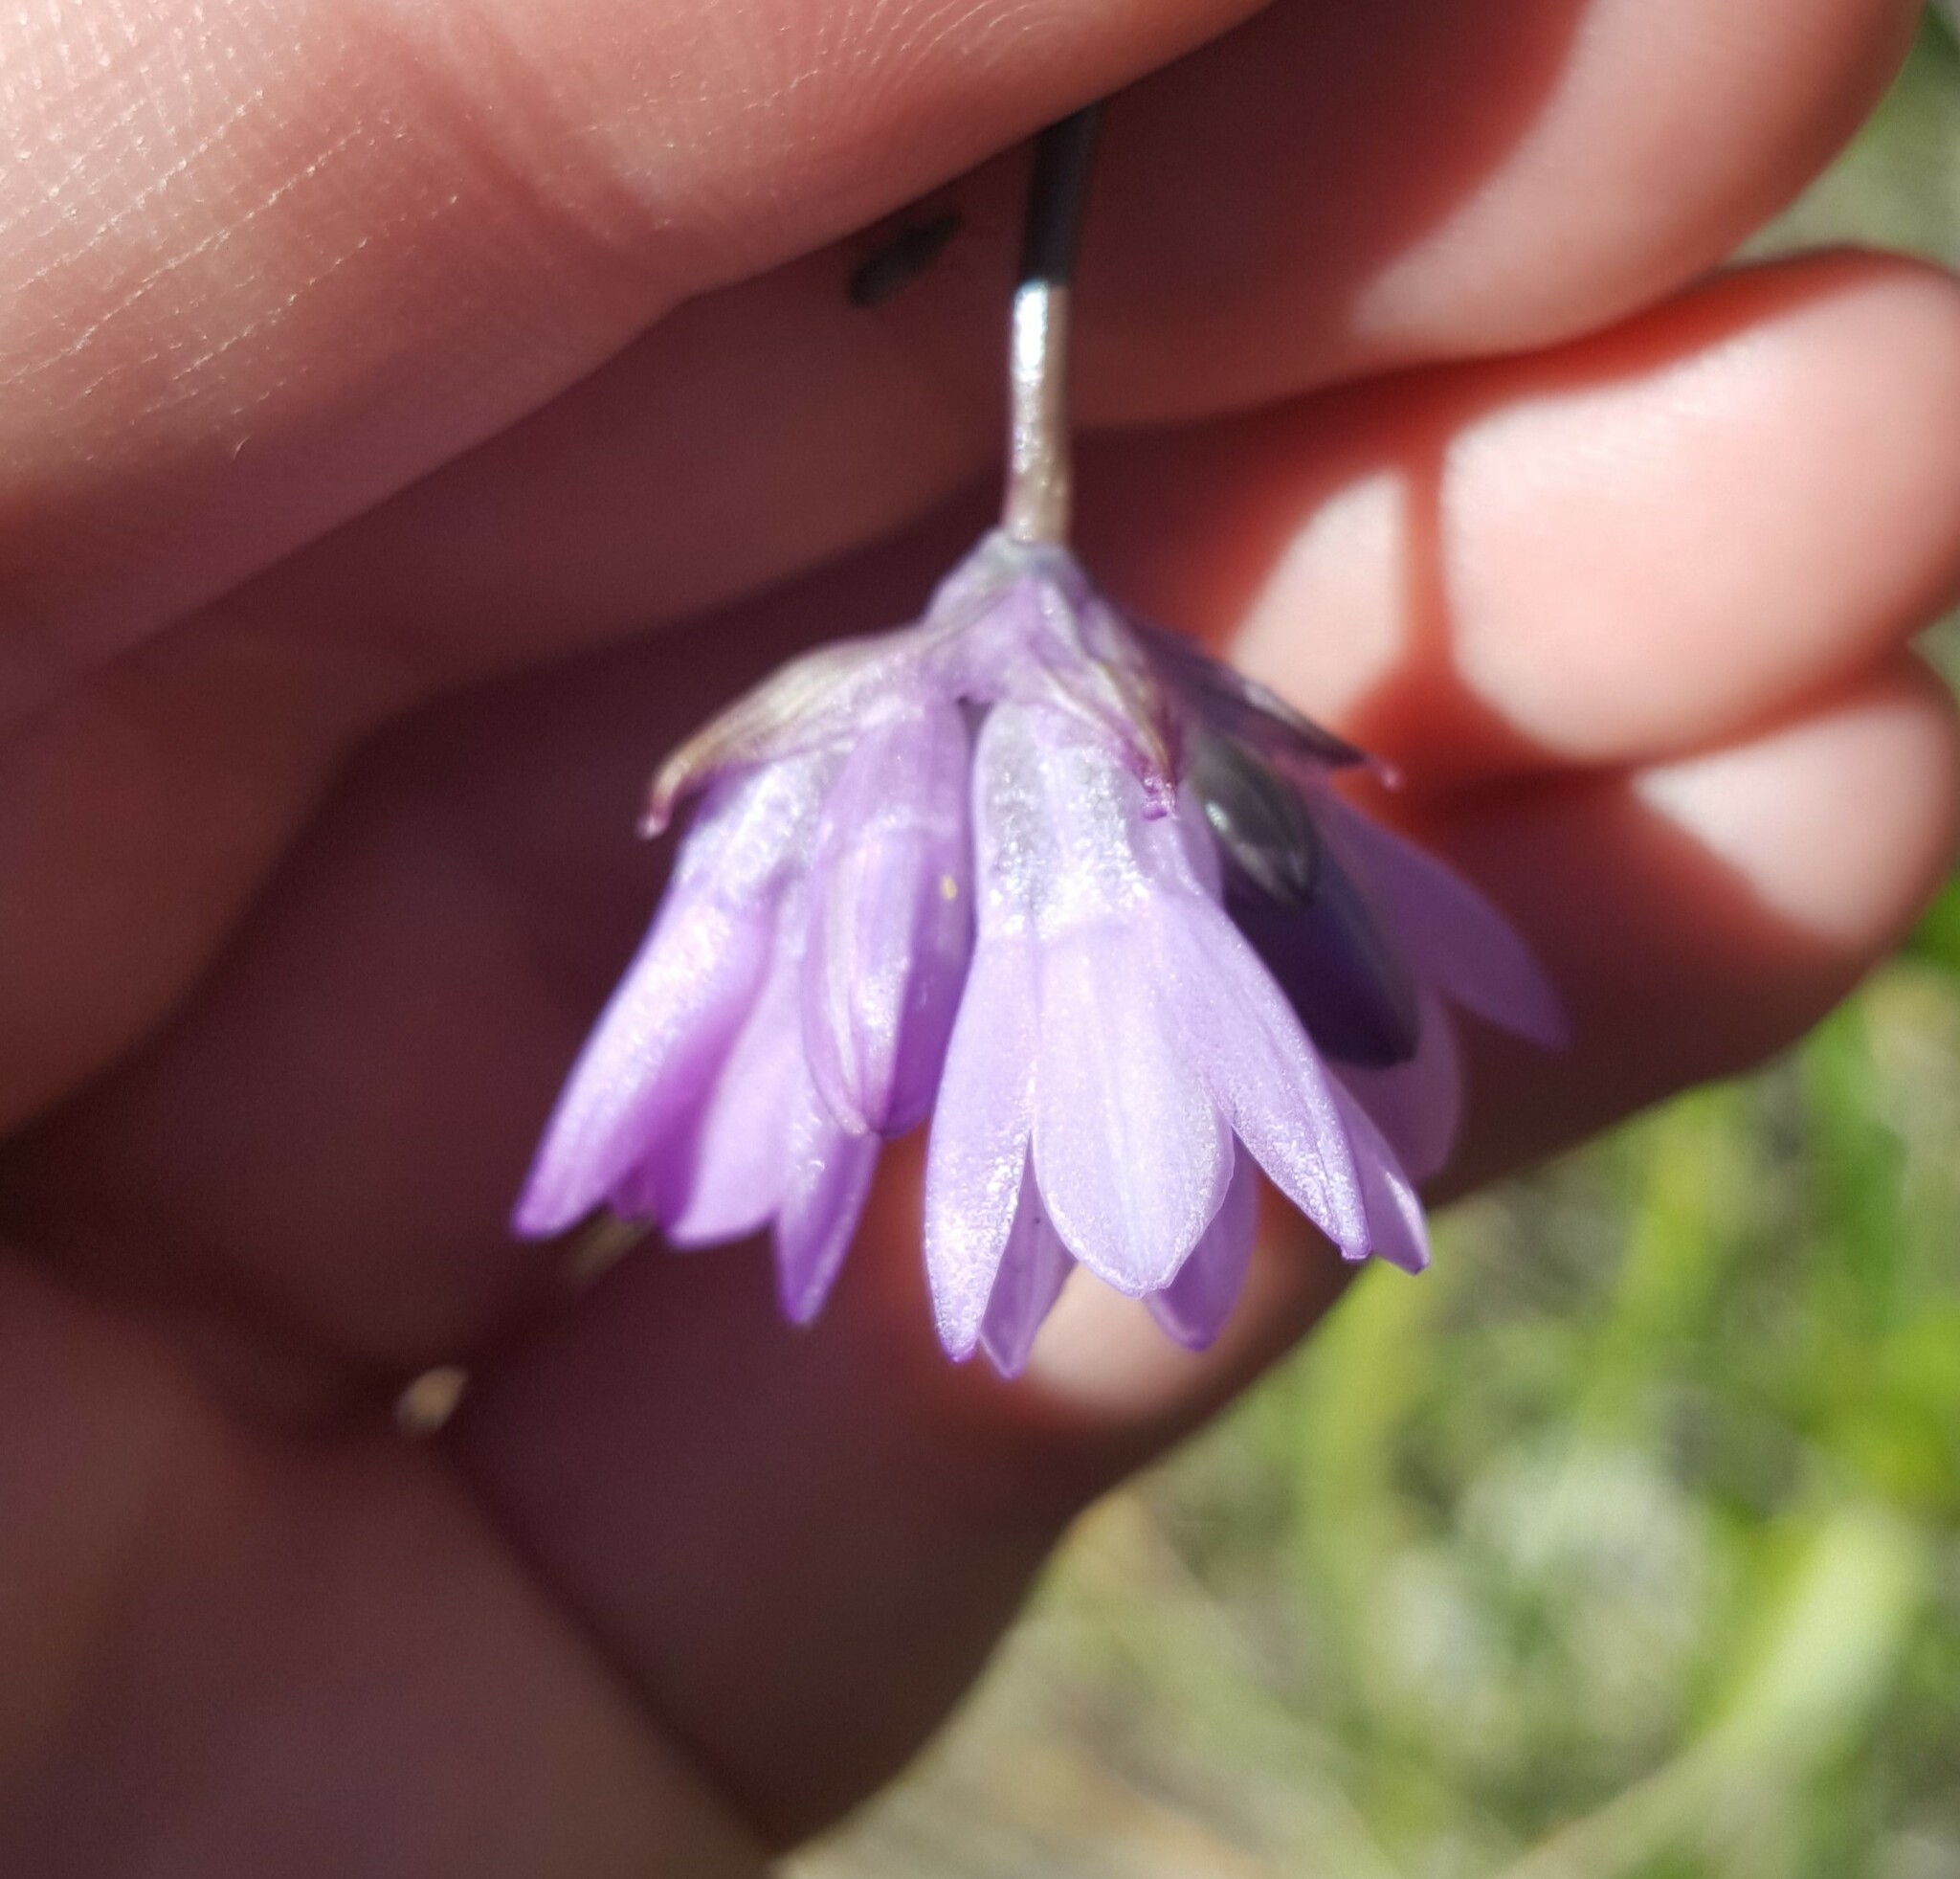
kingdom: Plantae
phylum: Tracheophyta
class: Liliopsida
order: Asparagales
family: Asparagaceae
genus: Dipterostemon
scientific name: Dipterostemon capitatus
